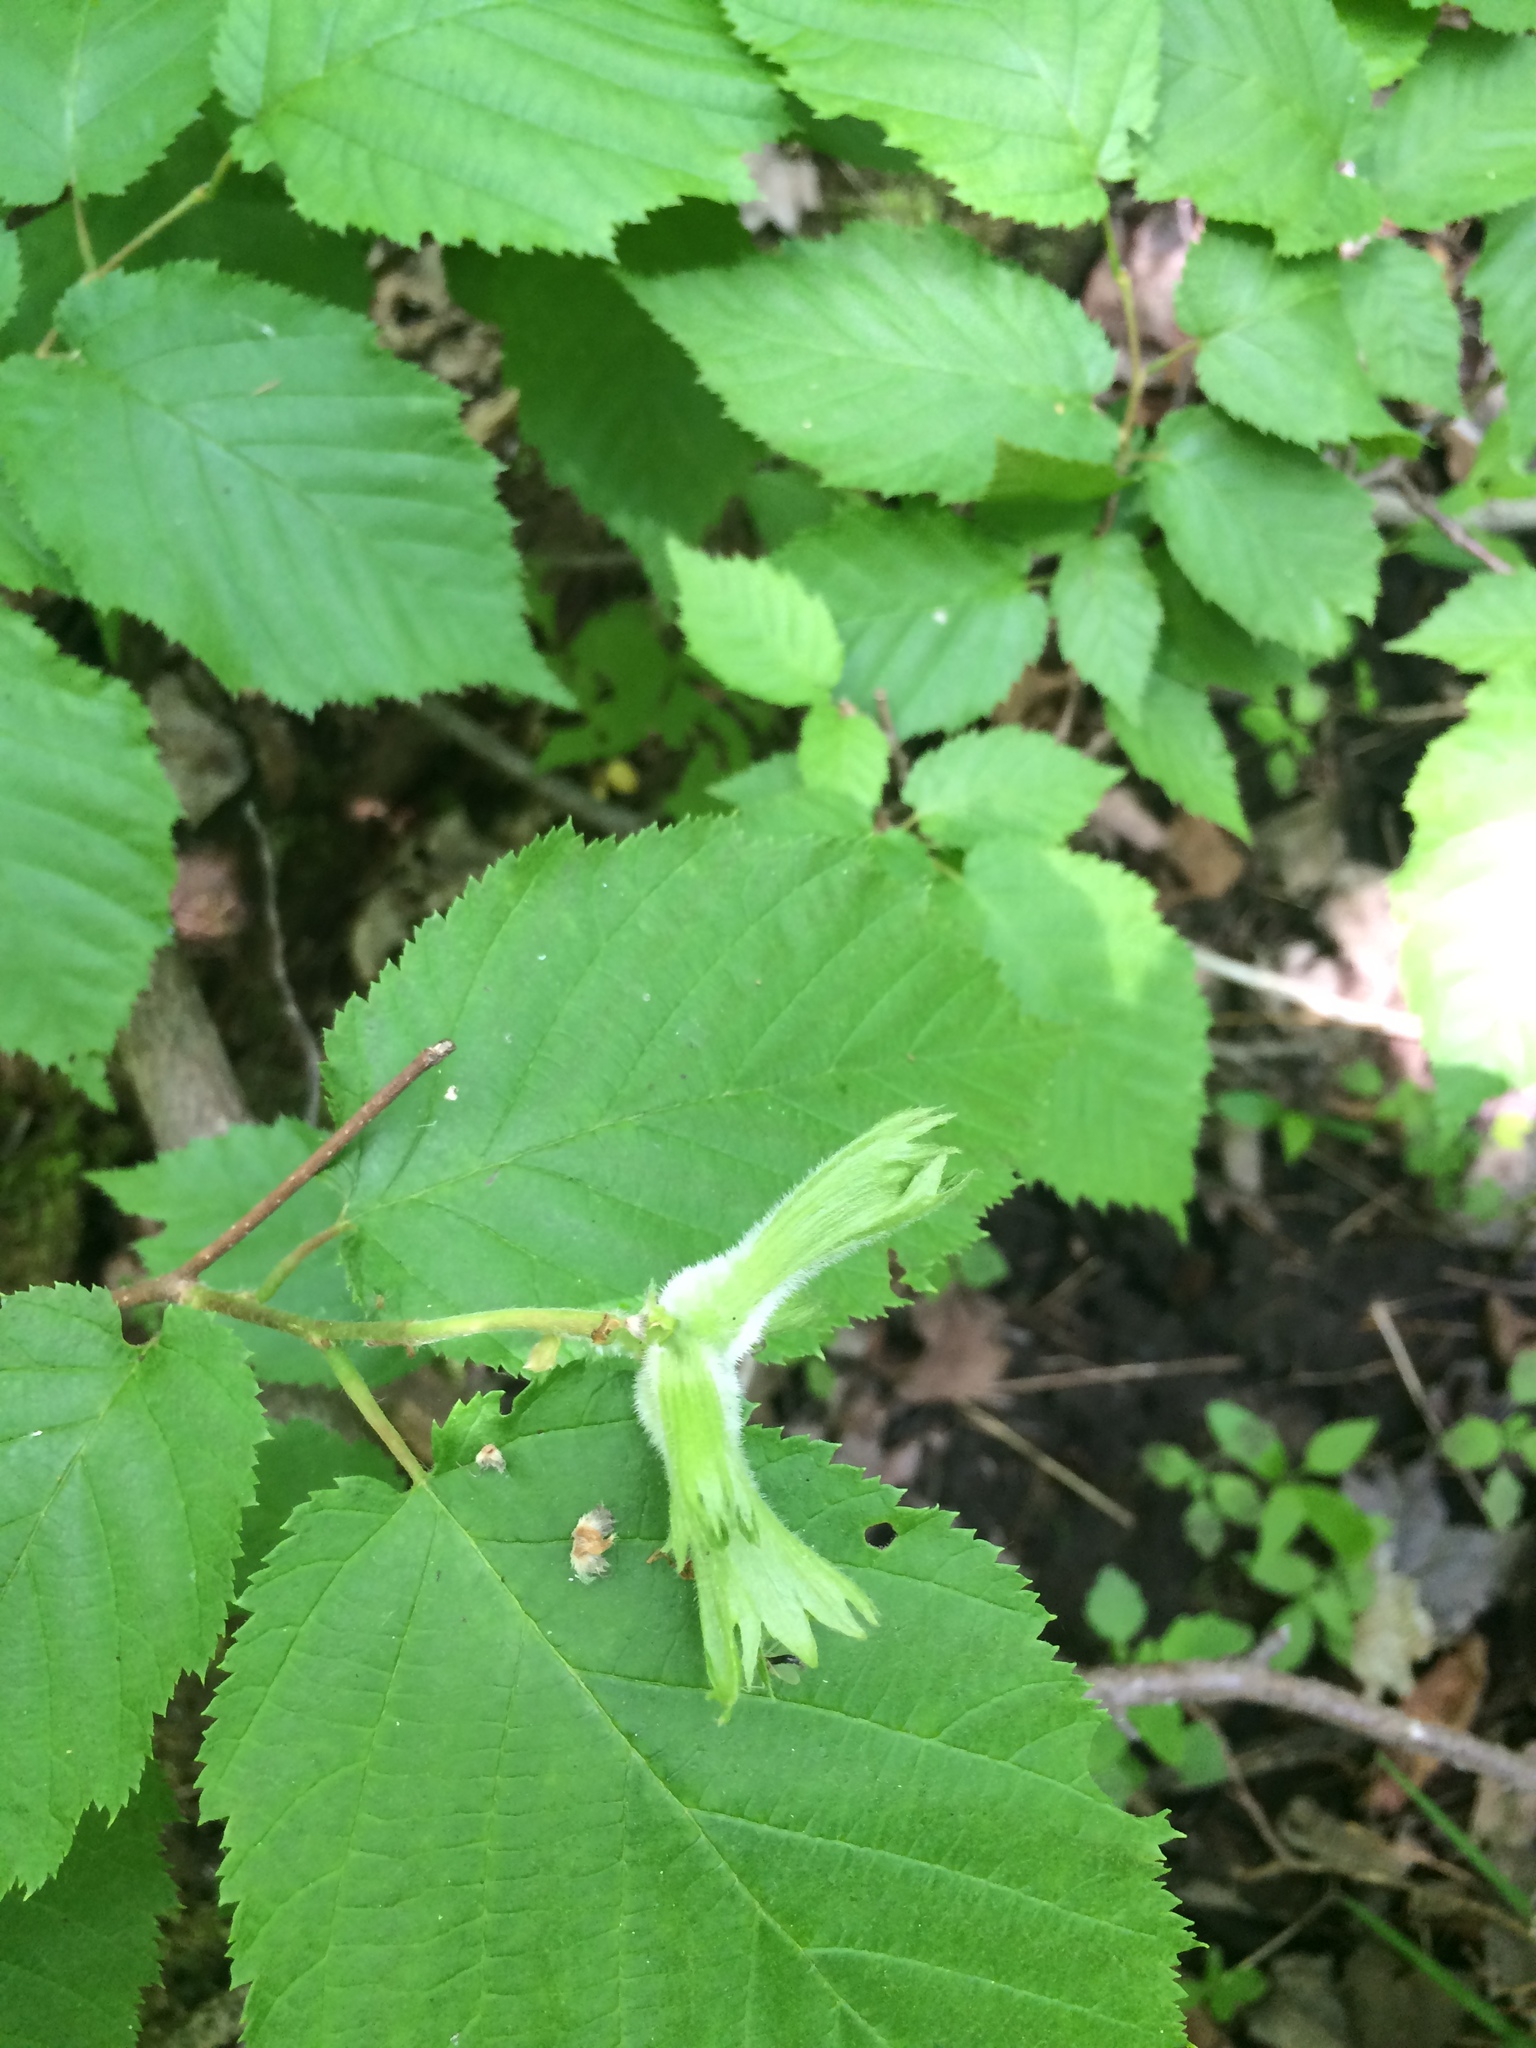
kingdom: Plantae
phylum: Tracheophyta
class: Magnoliopsida
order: Fagales
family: Betulaceae
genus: Corylus
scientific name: Corylus cornuta
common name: Beaked hazel
